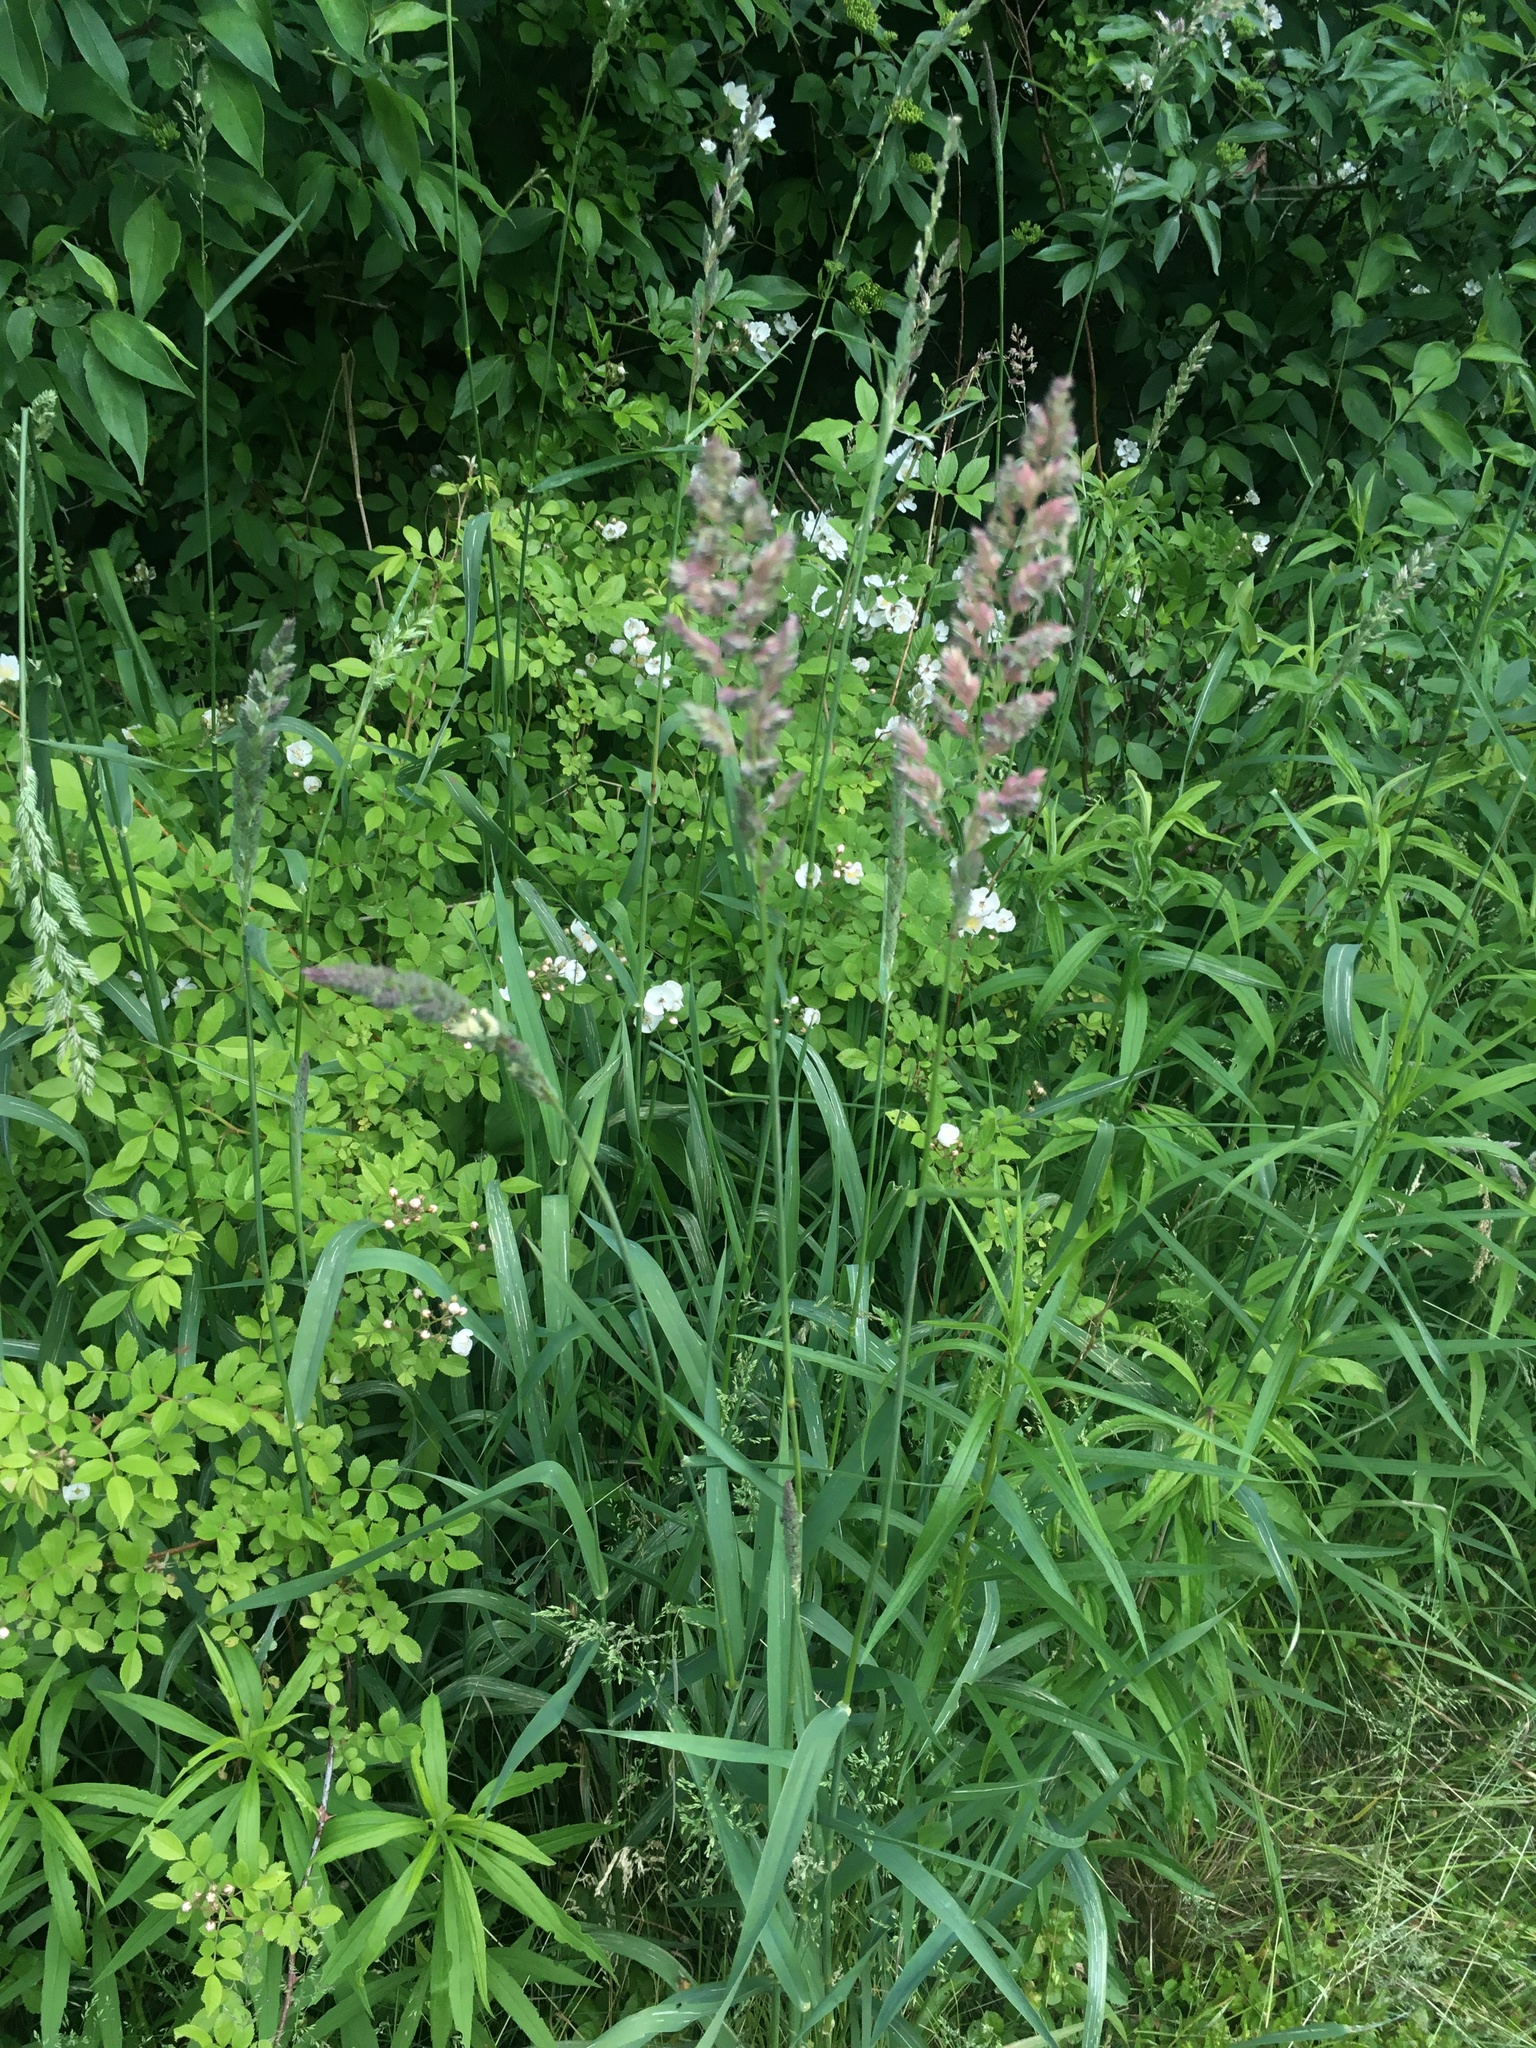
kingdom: Plantae
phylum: Tracheophyta
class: Liliopsida
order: Poales
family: Poaceae
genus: Phalaris
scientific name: Phalaris arundinacea
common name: Reed canary-grass
